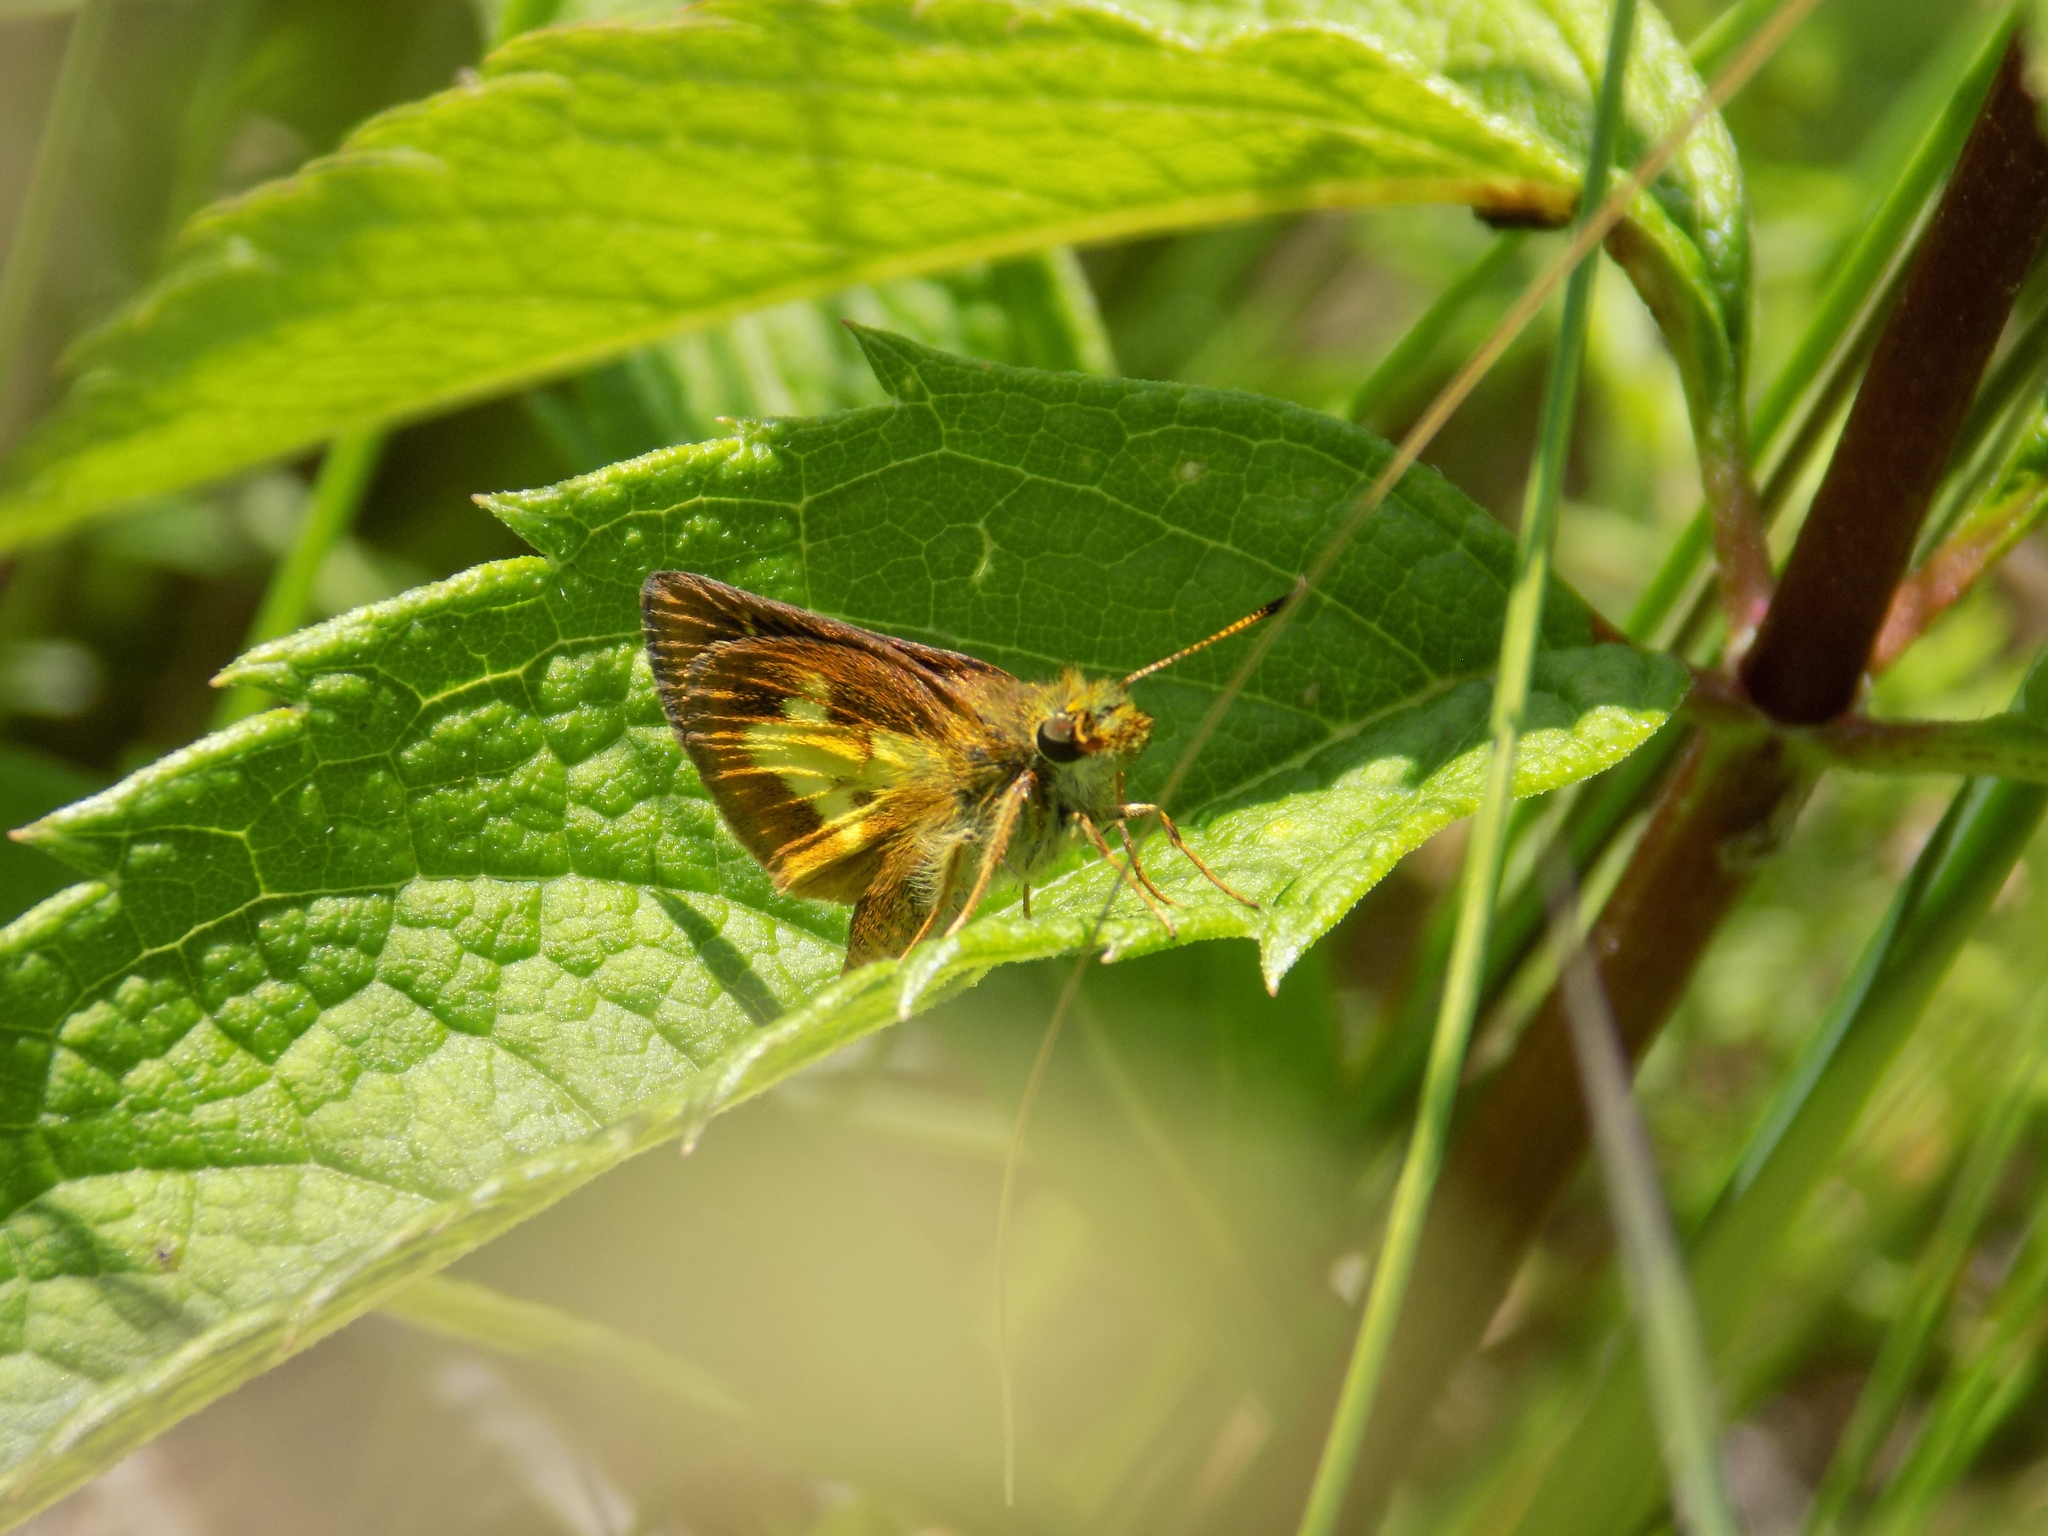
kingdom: Animalia
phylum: Arthropoda
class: Insecta
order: Lepidoptera
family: Hesperiidae
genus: Poanes
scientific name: Poanes massasoit
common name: Mulberrywing
